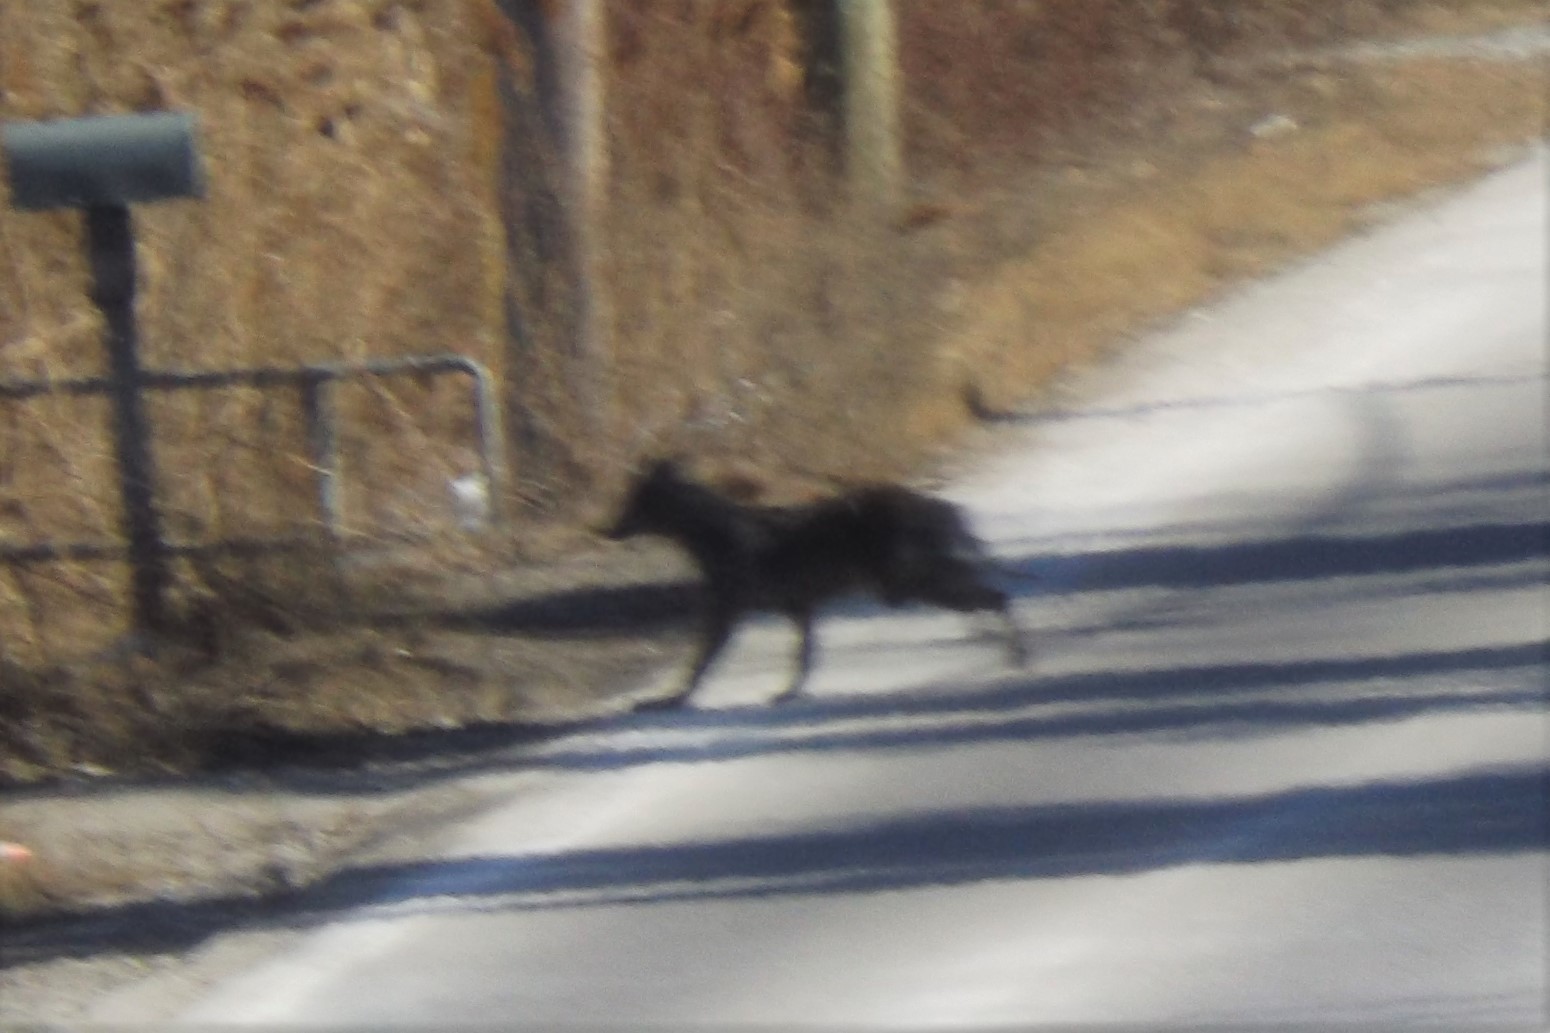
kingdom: Animalia
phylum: Chordata
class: Mammalia
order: Carnivora
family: Canidae
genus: Canis
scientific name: Canis latrans
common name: Coyote
